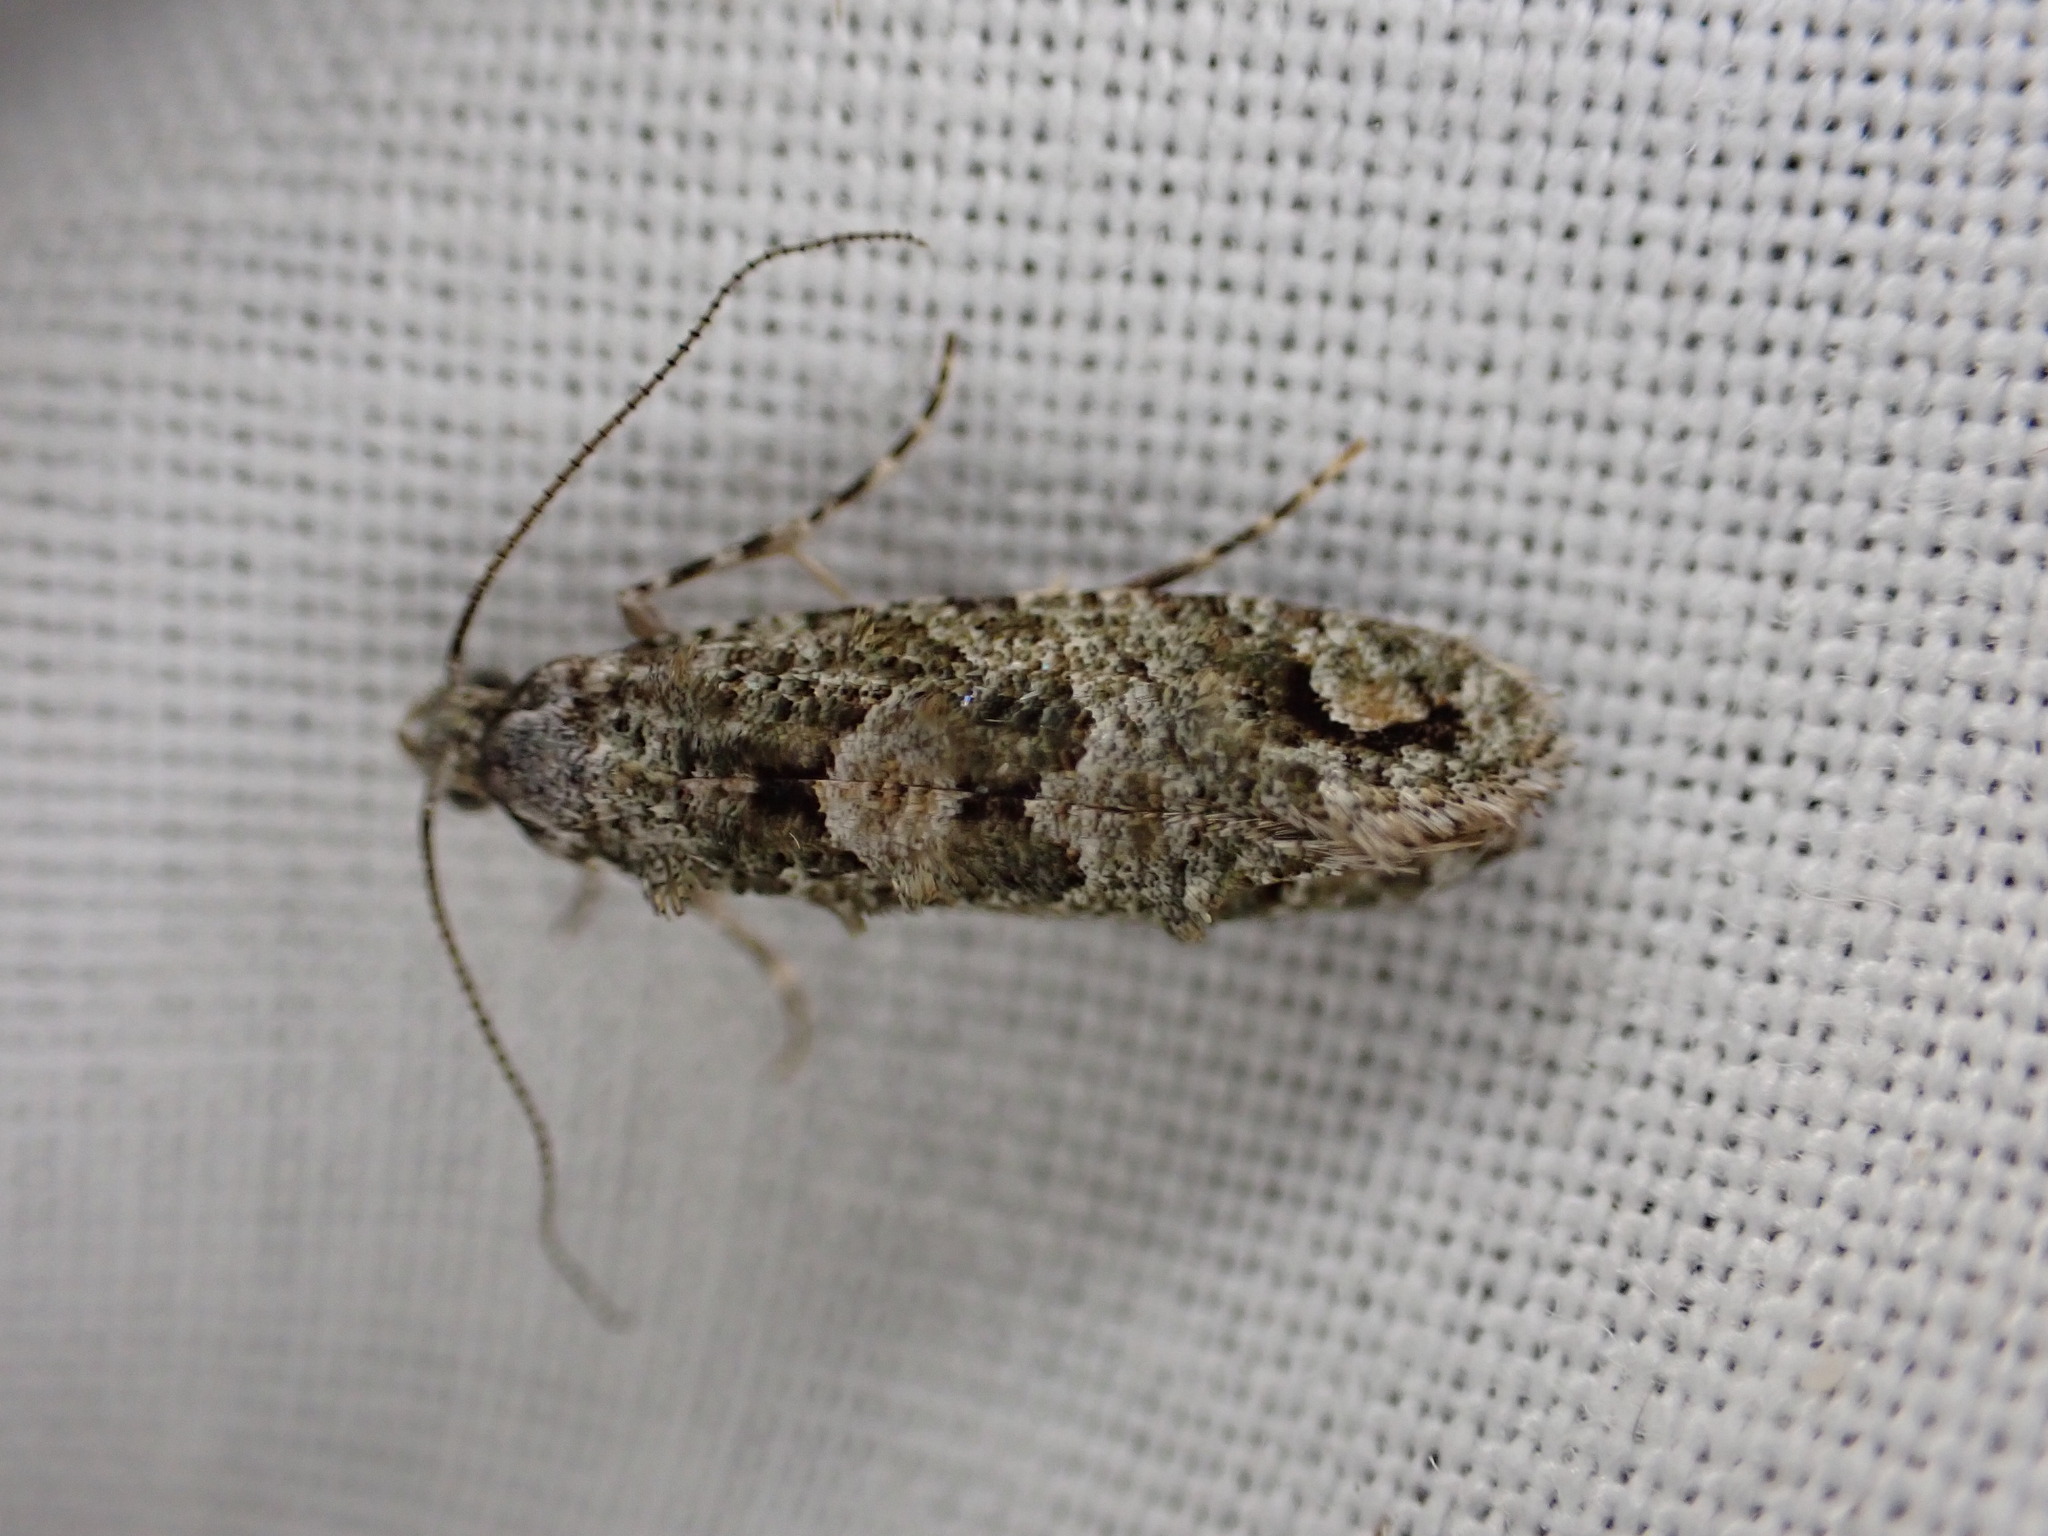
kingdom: Animalia
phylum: Arthropoda
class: Insecta
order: Lepidoptera
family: Tineidae
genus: Lysiphragma
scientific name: Lysiphragma howesii
